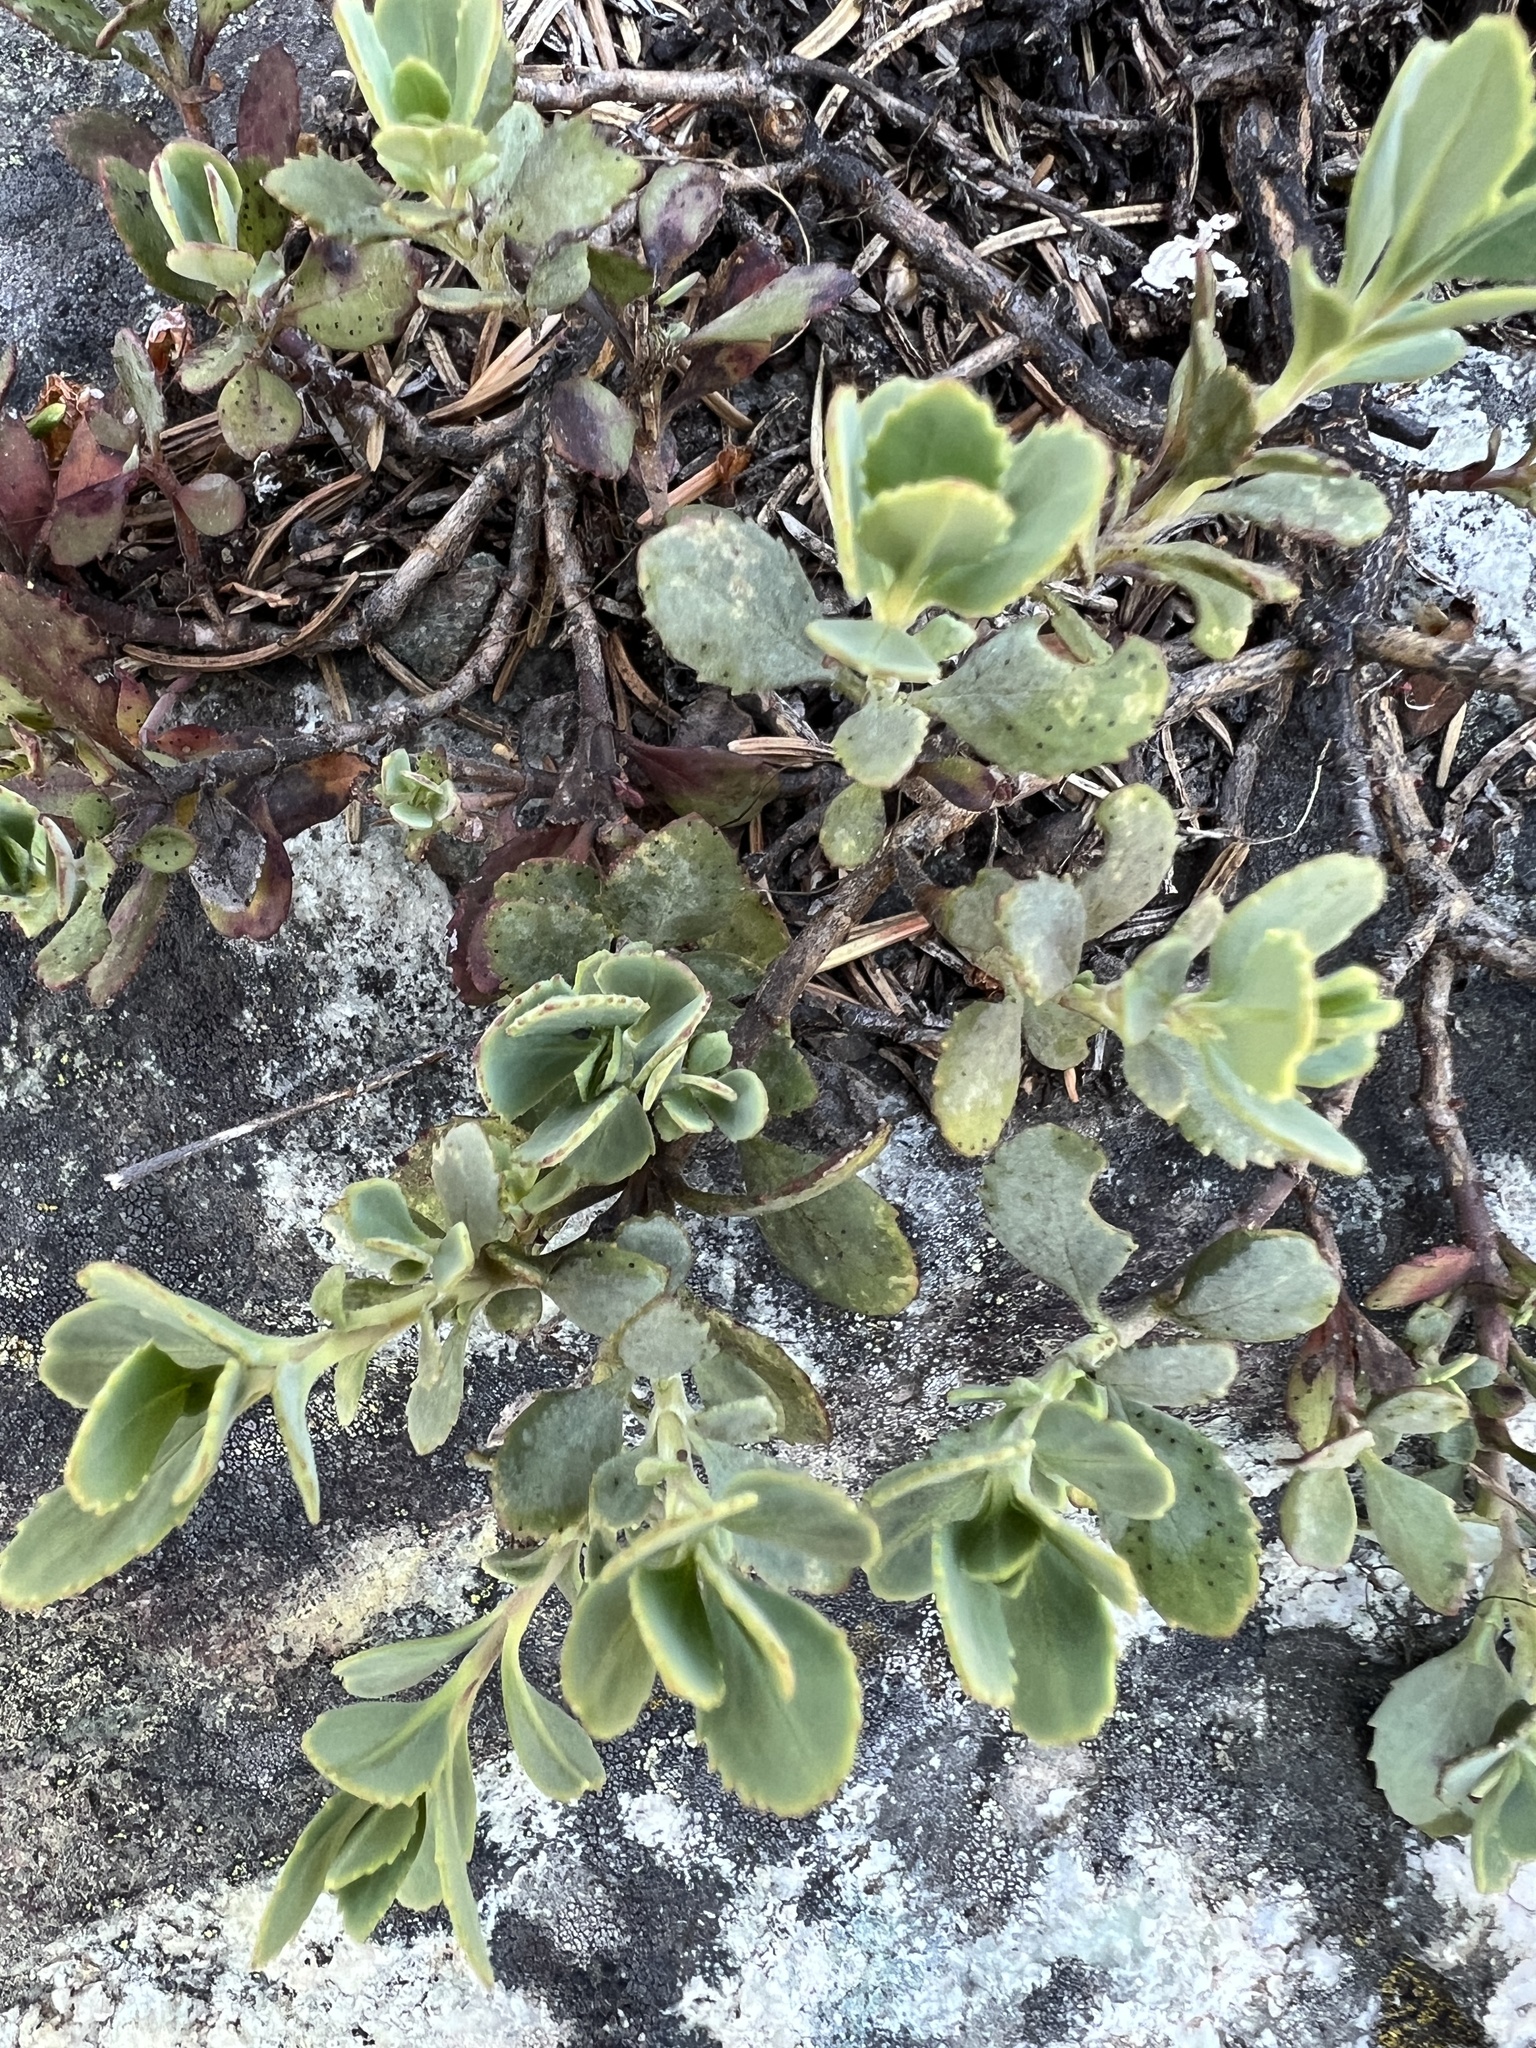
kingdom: Plantae
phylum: Tracheophyta
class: Magnoliopsida
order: Lamiales
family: Plantaginaceae
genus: Penstemon
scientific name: Penstemon rupicola
